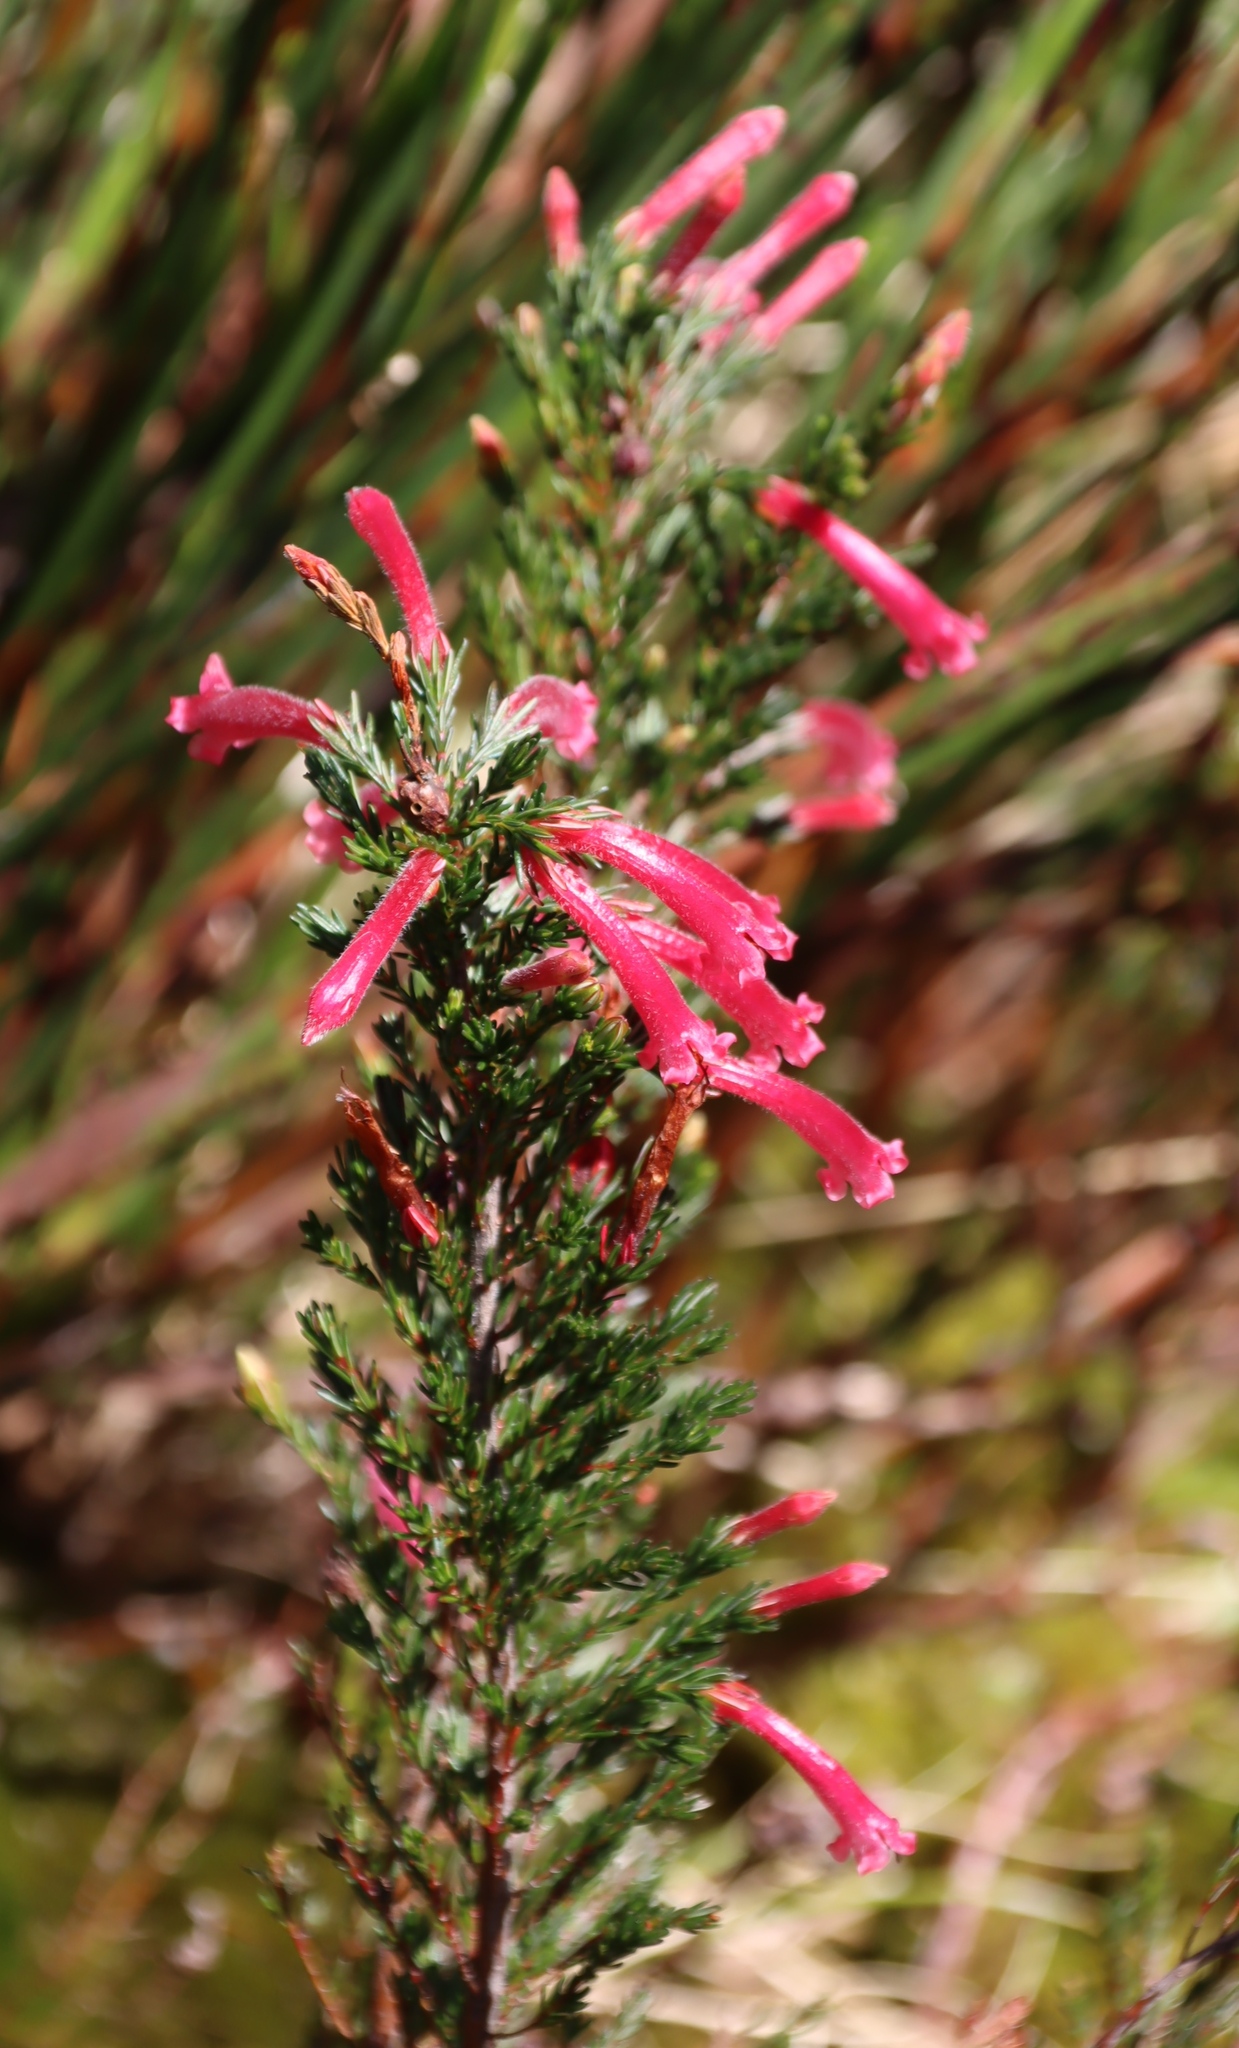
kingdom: Plantae
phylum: Tracheophyta
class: Magnoliopsida
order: Ericales
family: Ericaceae
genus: Erica
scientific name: Erica curviflora
